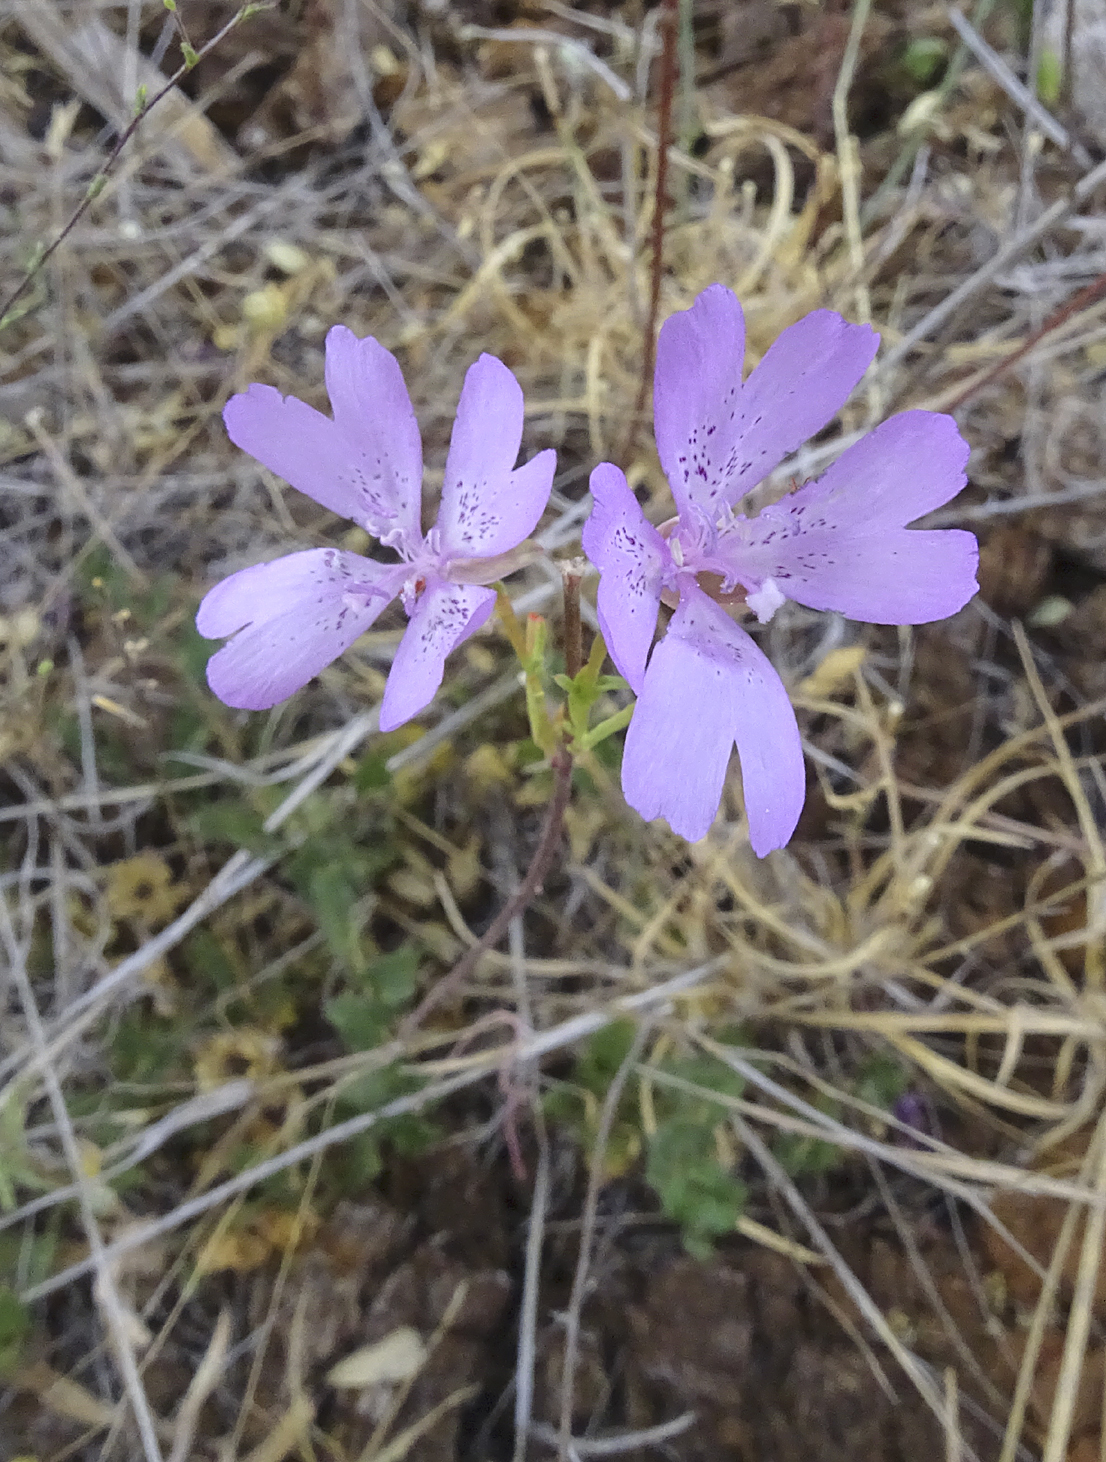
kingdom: Plantae
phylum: Tracheophyta
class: Magnoliopsida
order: Myrtales
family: Onagraceae
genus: Clarkia
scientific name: Clarkia biloba
